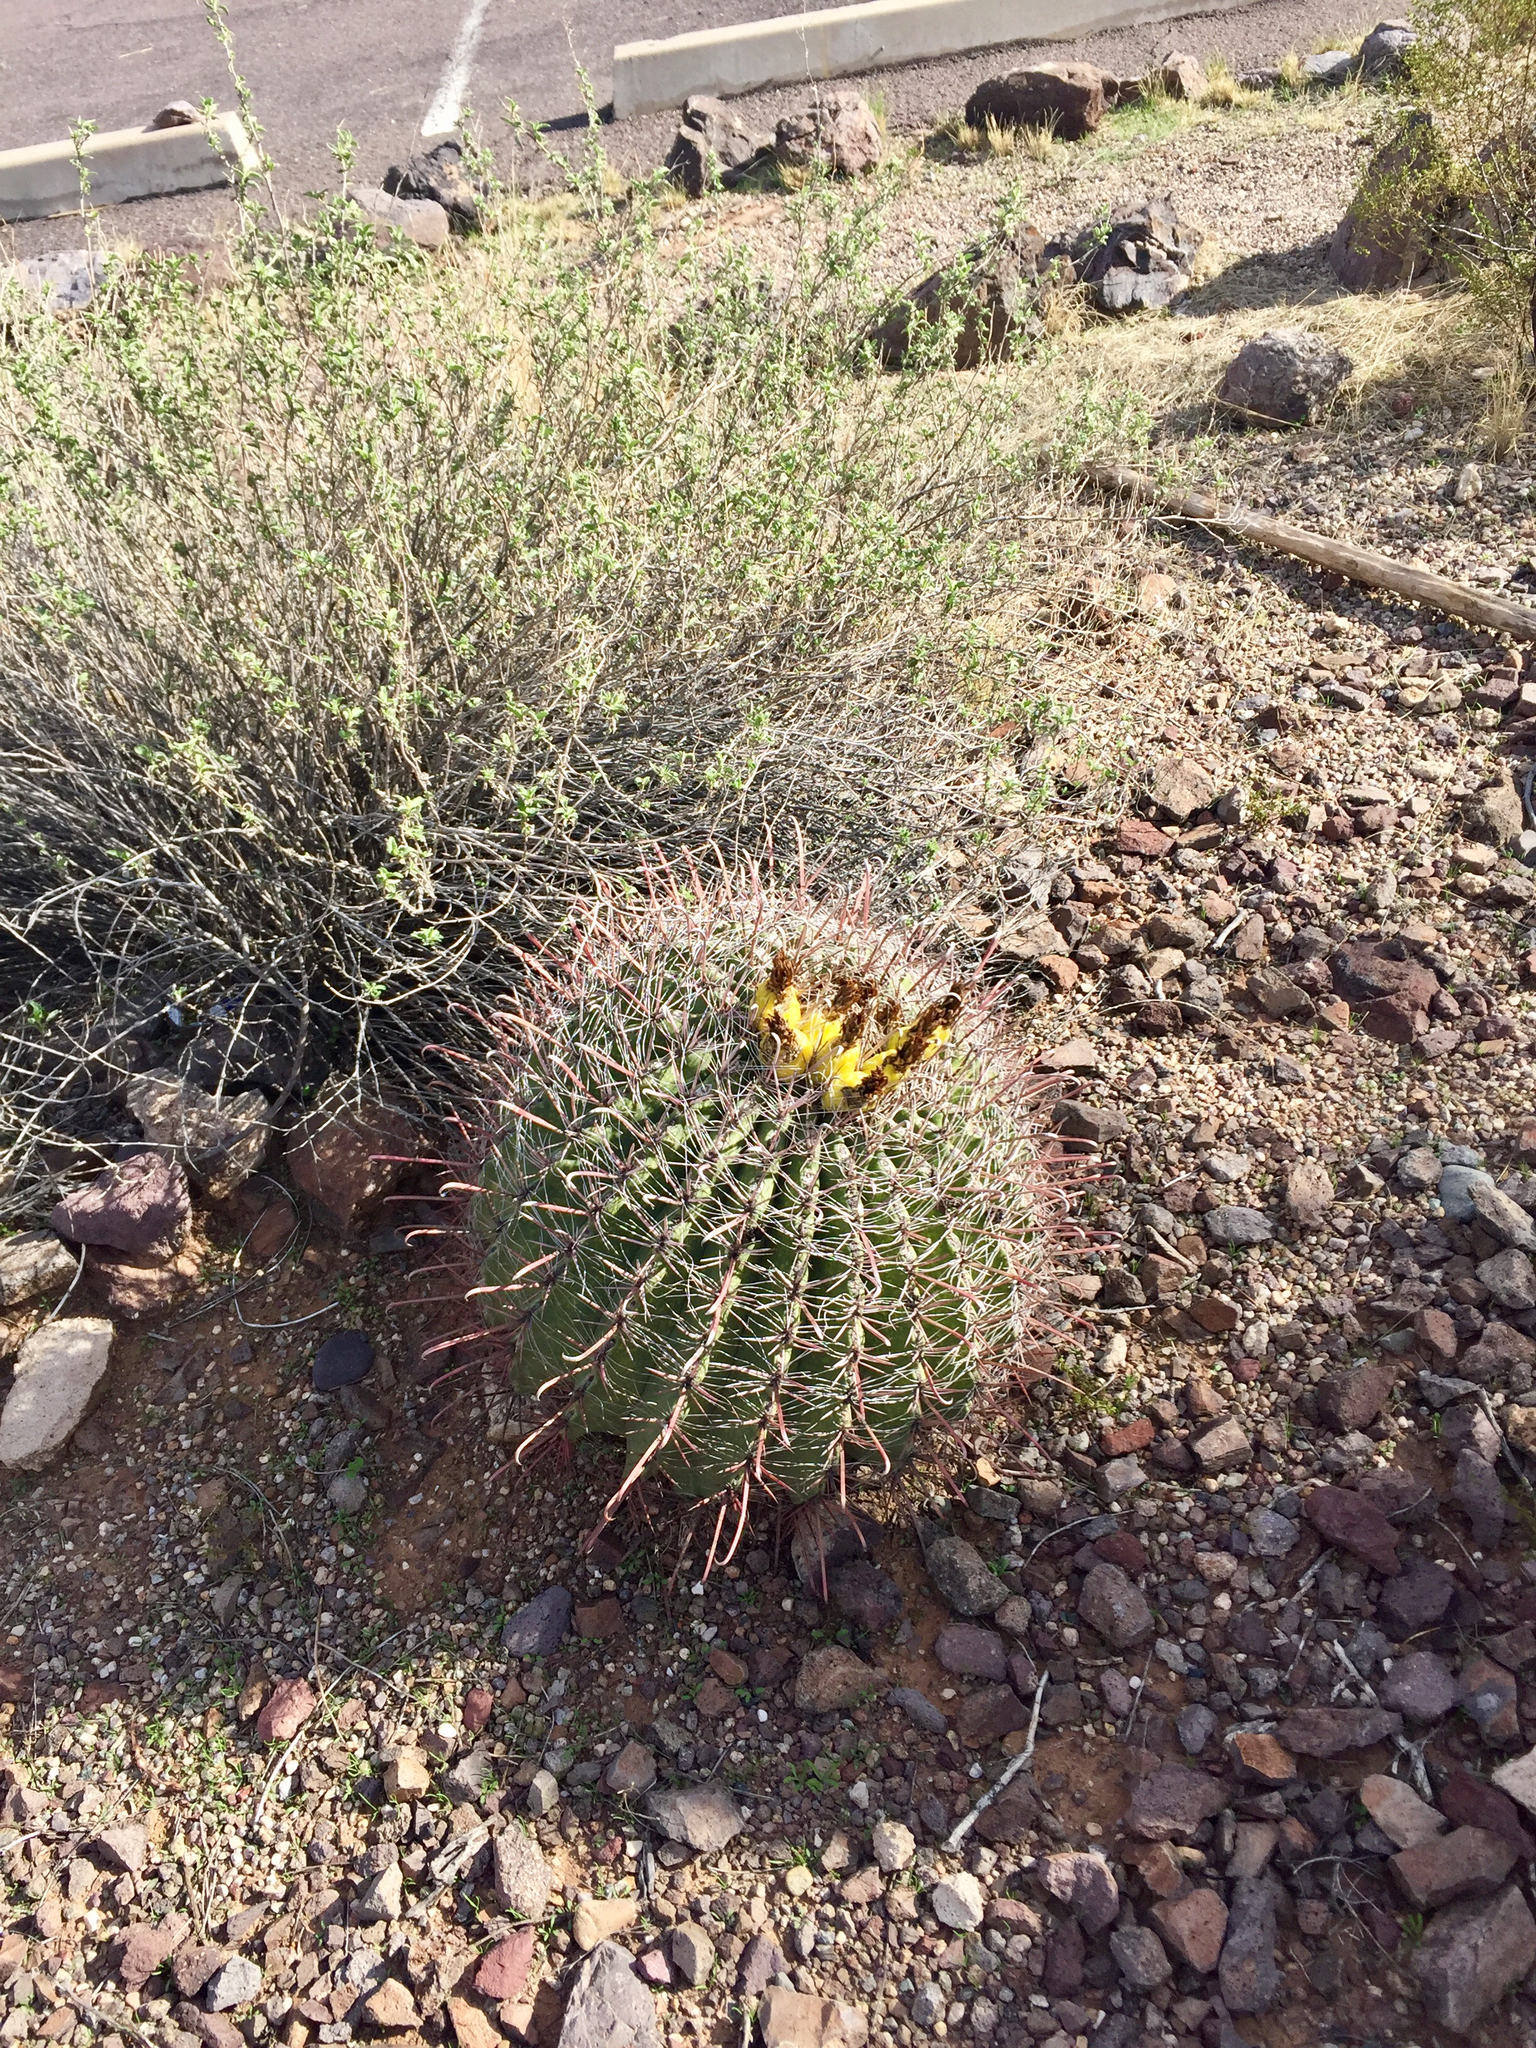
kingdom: Plantae
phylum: Tracheophyta
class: Magnoliopsida
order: Caryophyllales
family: Cactaceae
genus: Ferocactus
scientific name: Ferocactus wislizeni
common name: Candy barrel cactus
